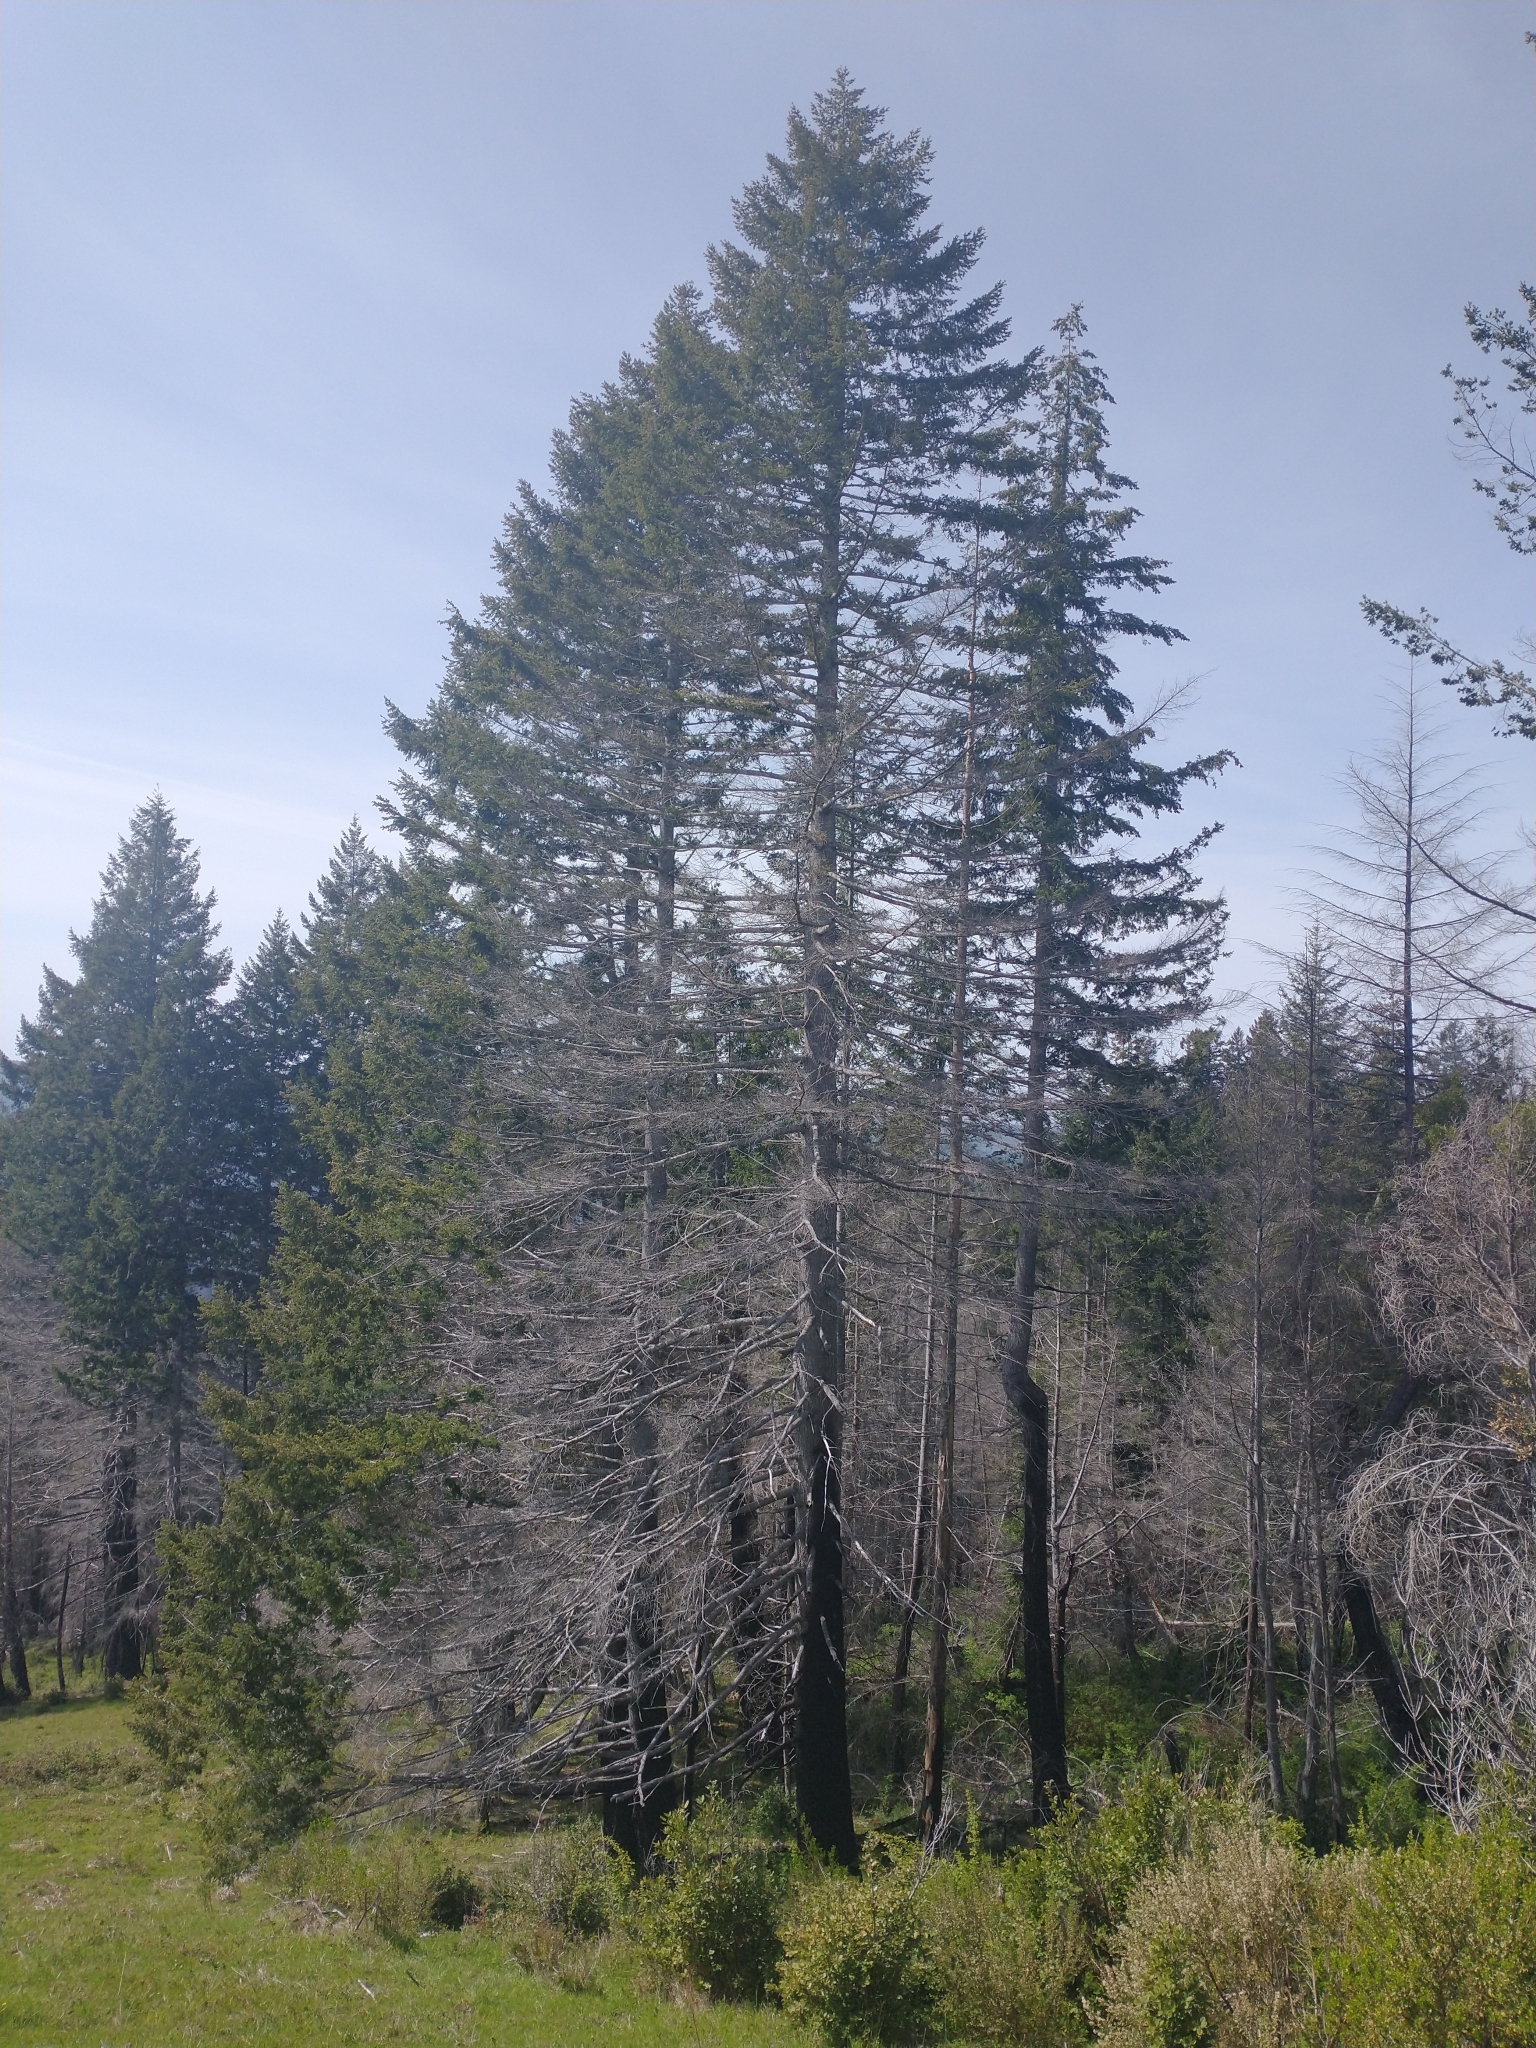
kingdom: Plantae
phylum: Tracheophyta
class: Pinopsida
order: Pinales
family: Pinaceae
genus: Pseudotsuga
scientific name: Pseudotsuga menziesii
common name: Douglas fir
